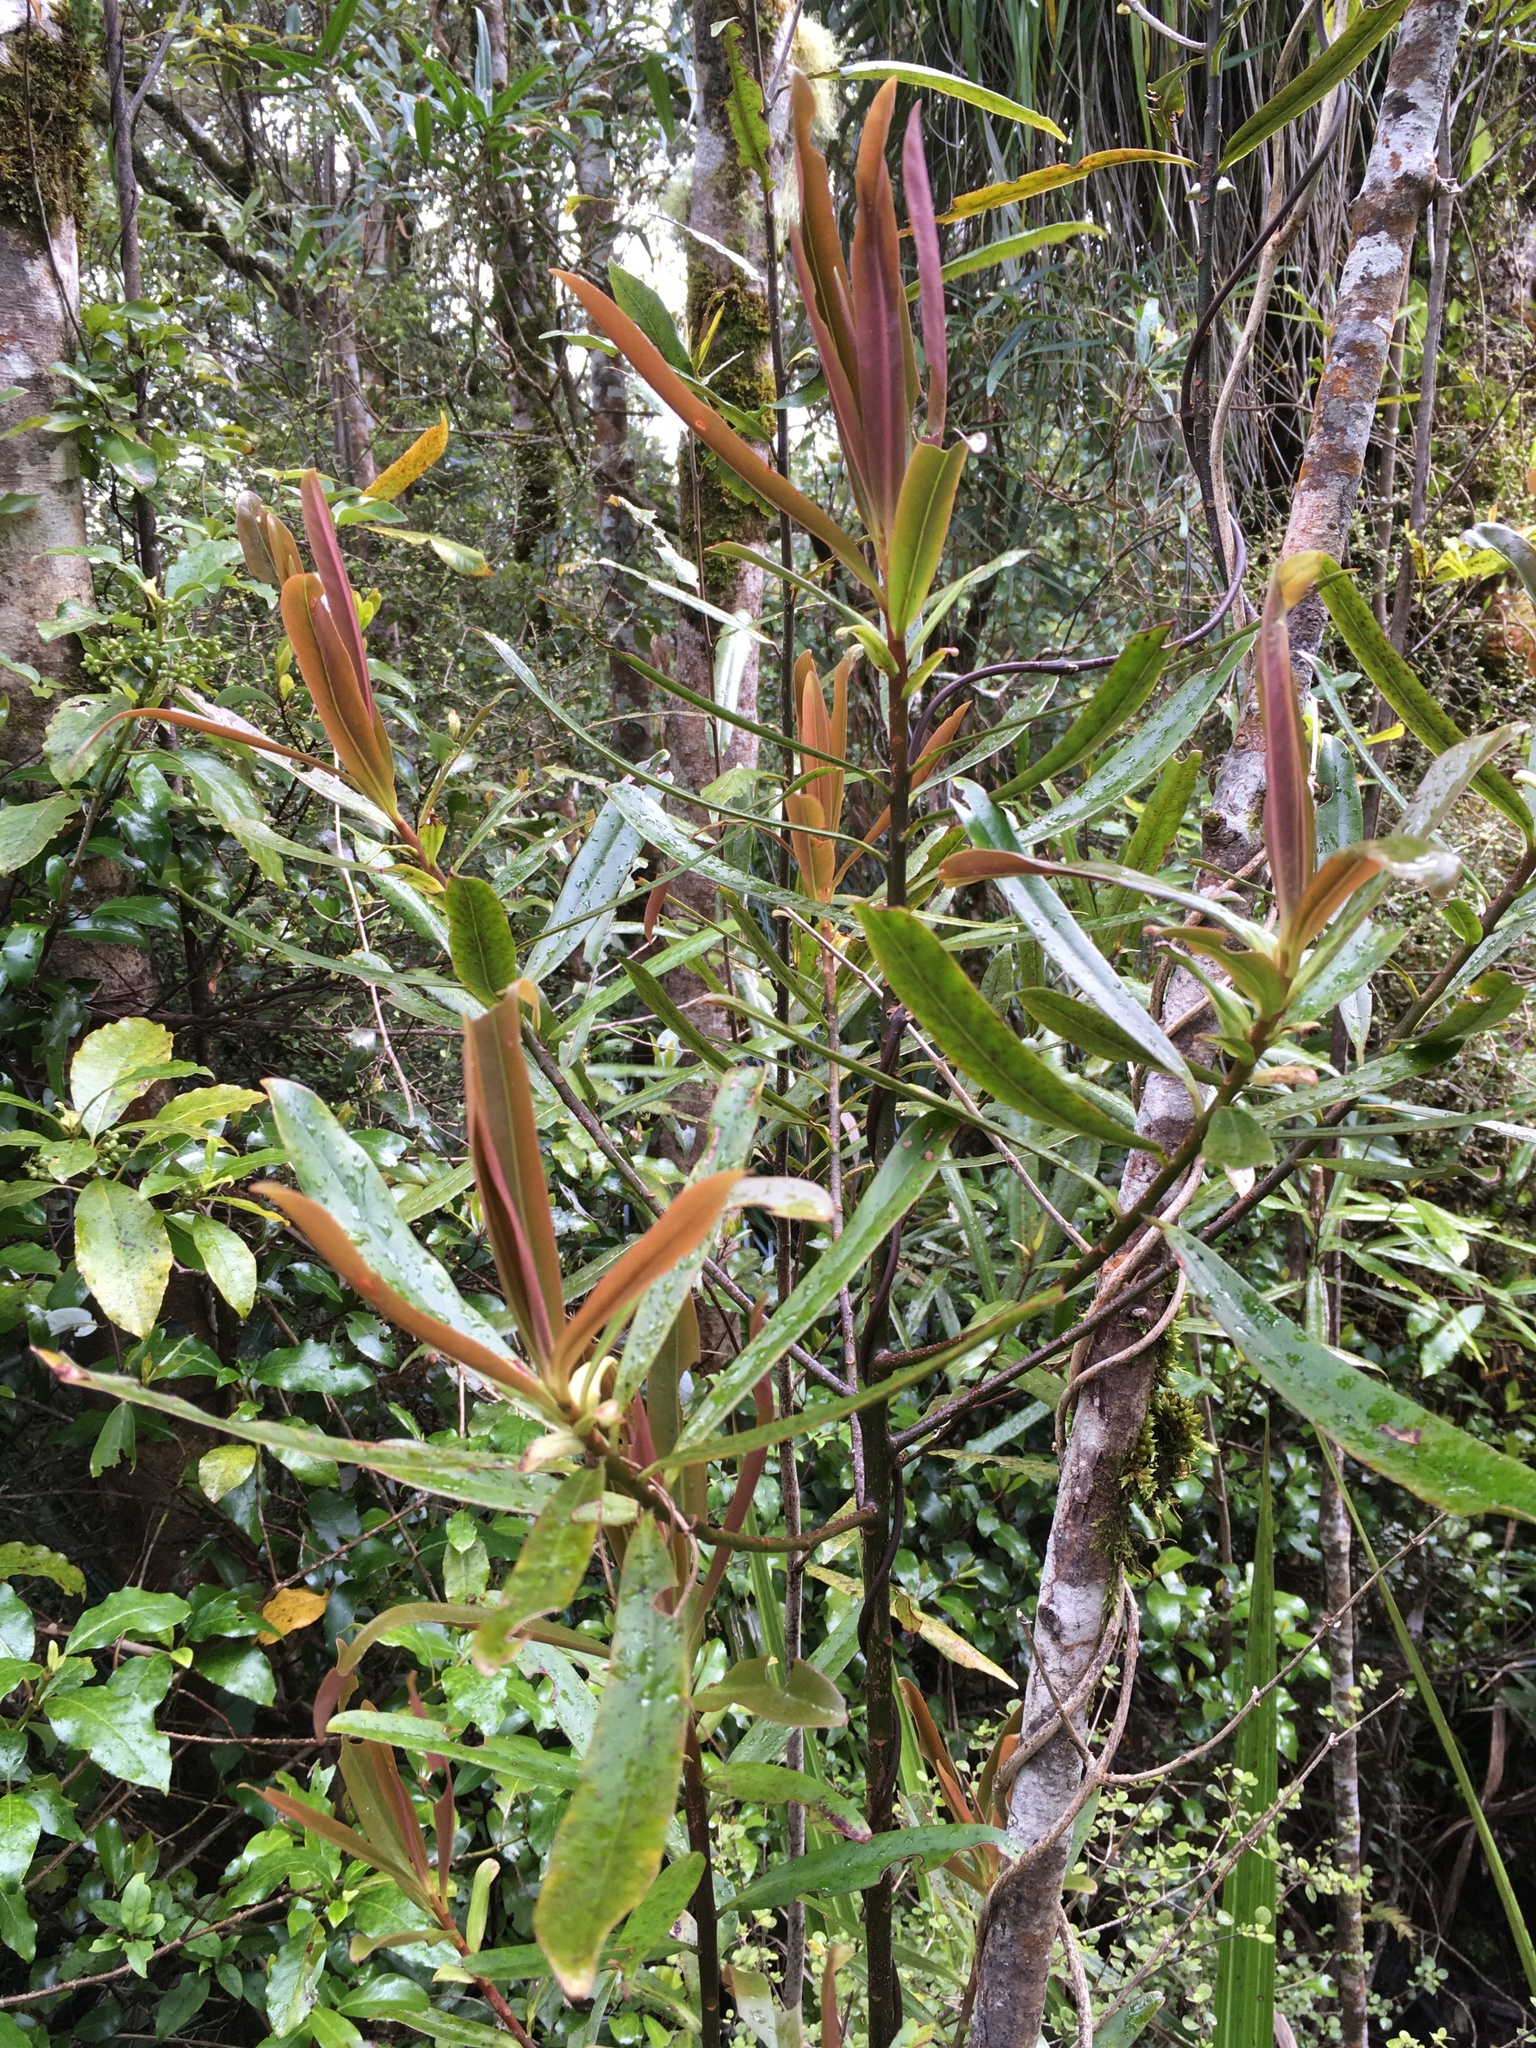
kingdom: Plantae
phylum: Tracheophyta
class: Magnoliopsida
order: Ericales
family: Primulaceae
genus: Myrsine
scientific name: Myrsine salicina
